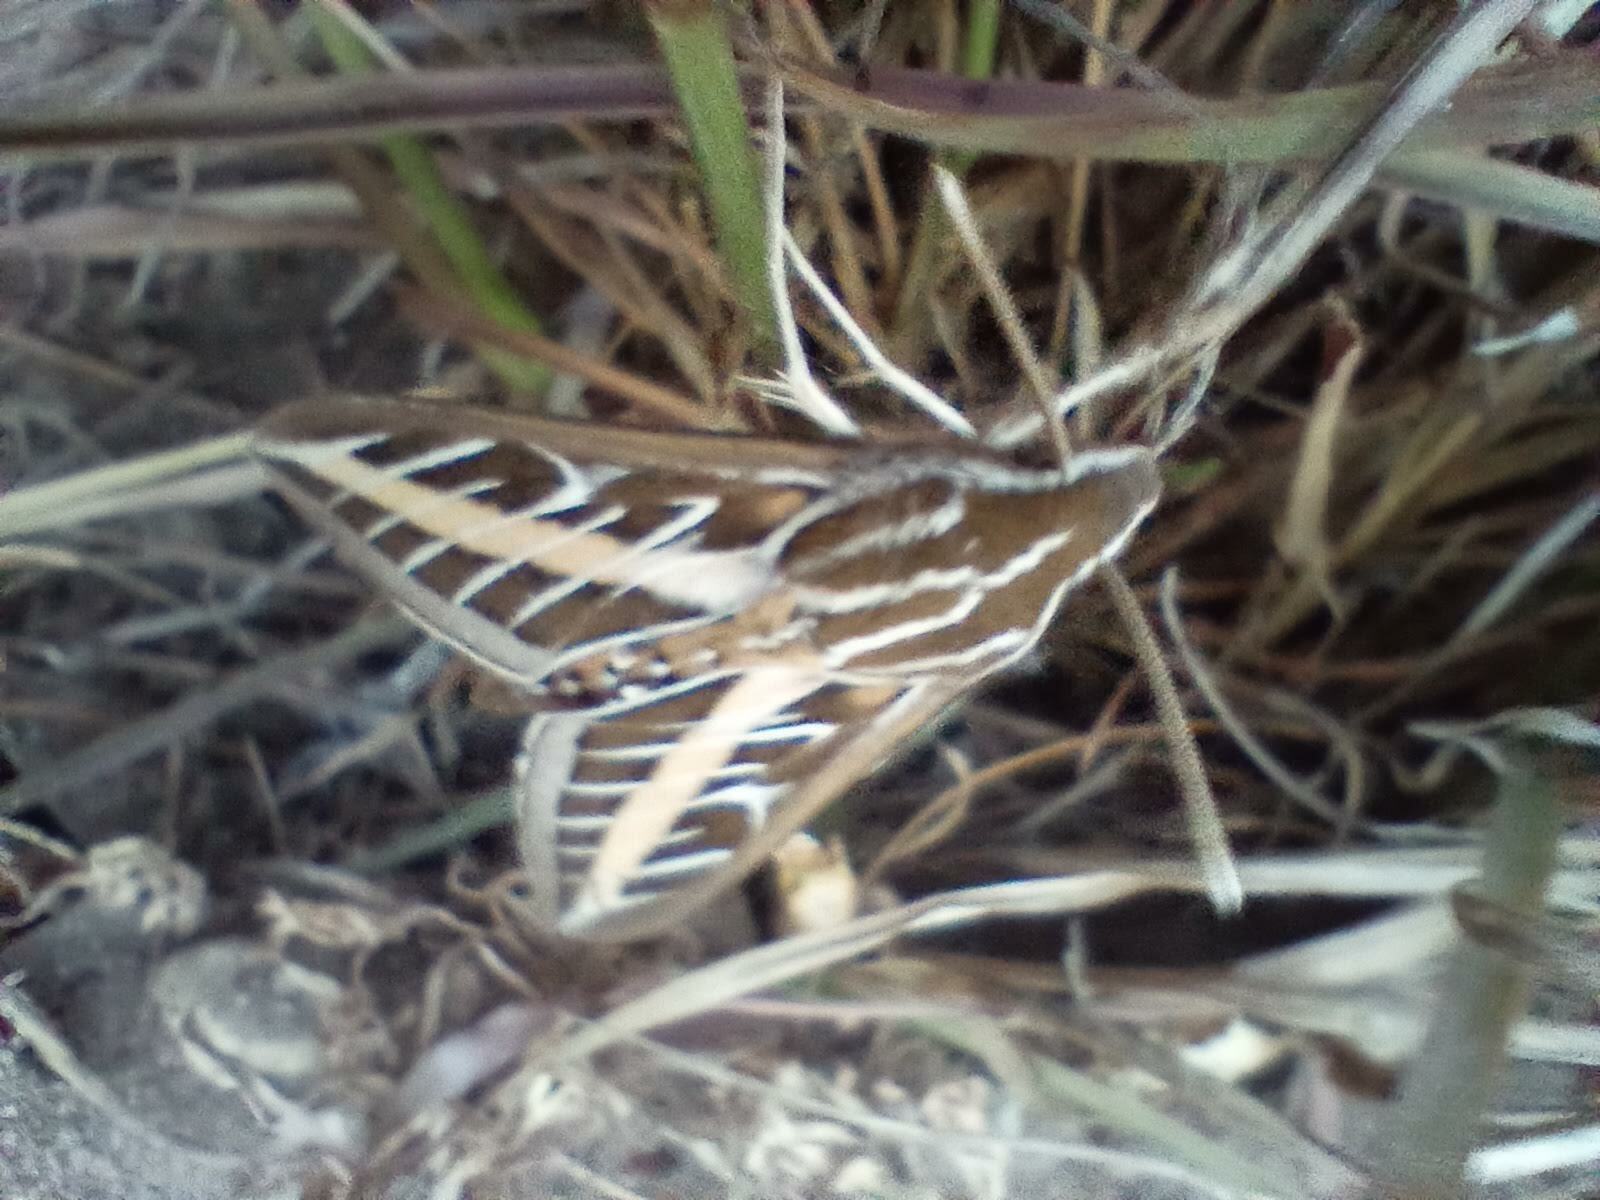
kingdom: Animalia
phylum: Arthropoda
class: Insecta
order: Lepidoptera
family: Sphingidae
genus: Hyles
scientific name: Hyles lineata
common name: White-lined sphinx
